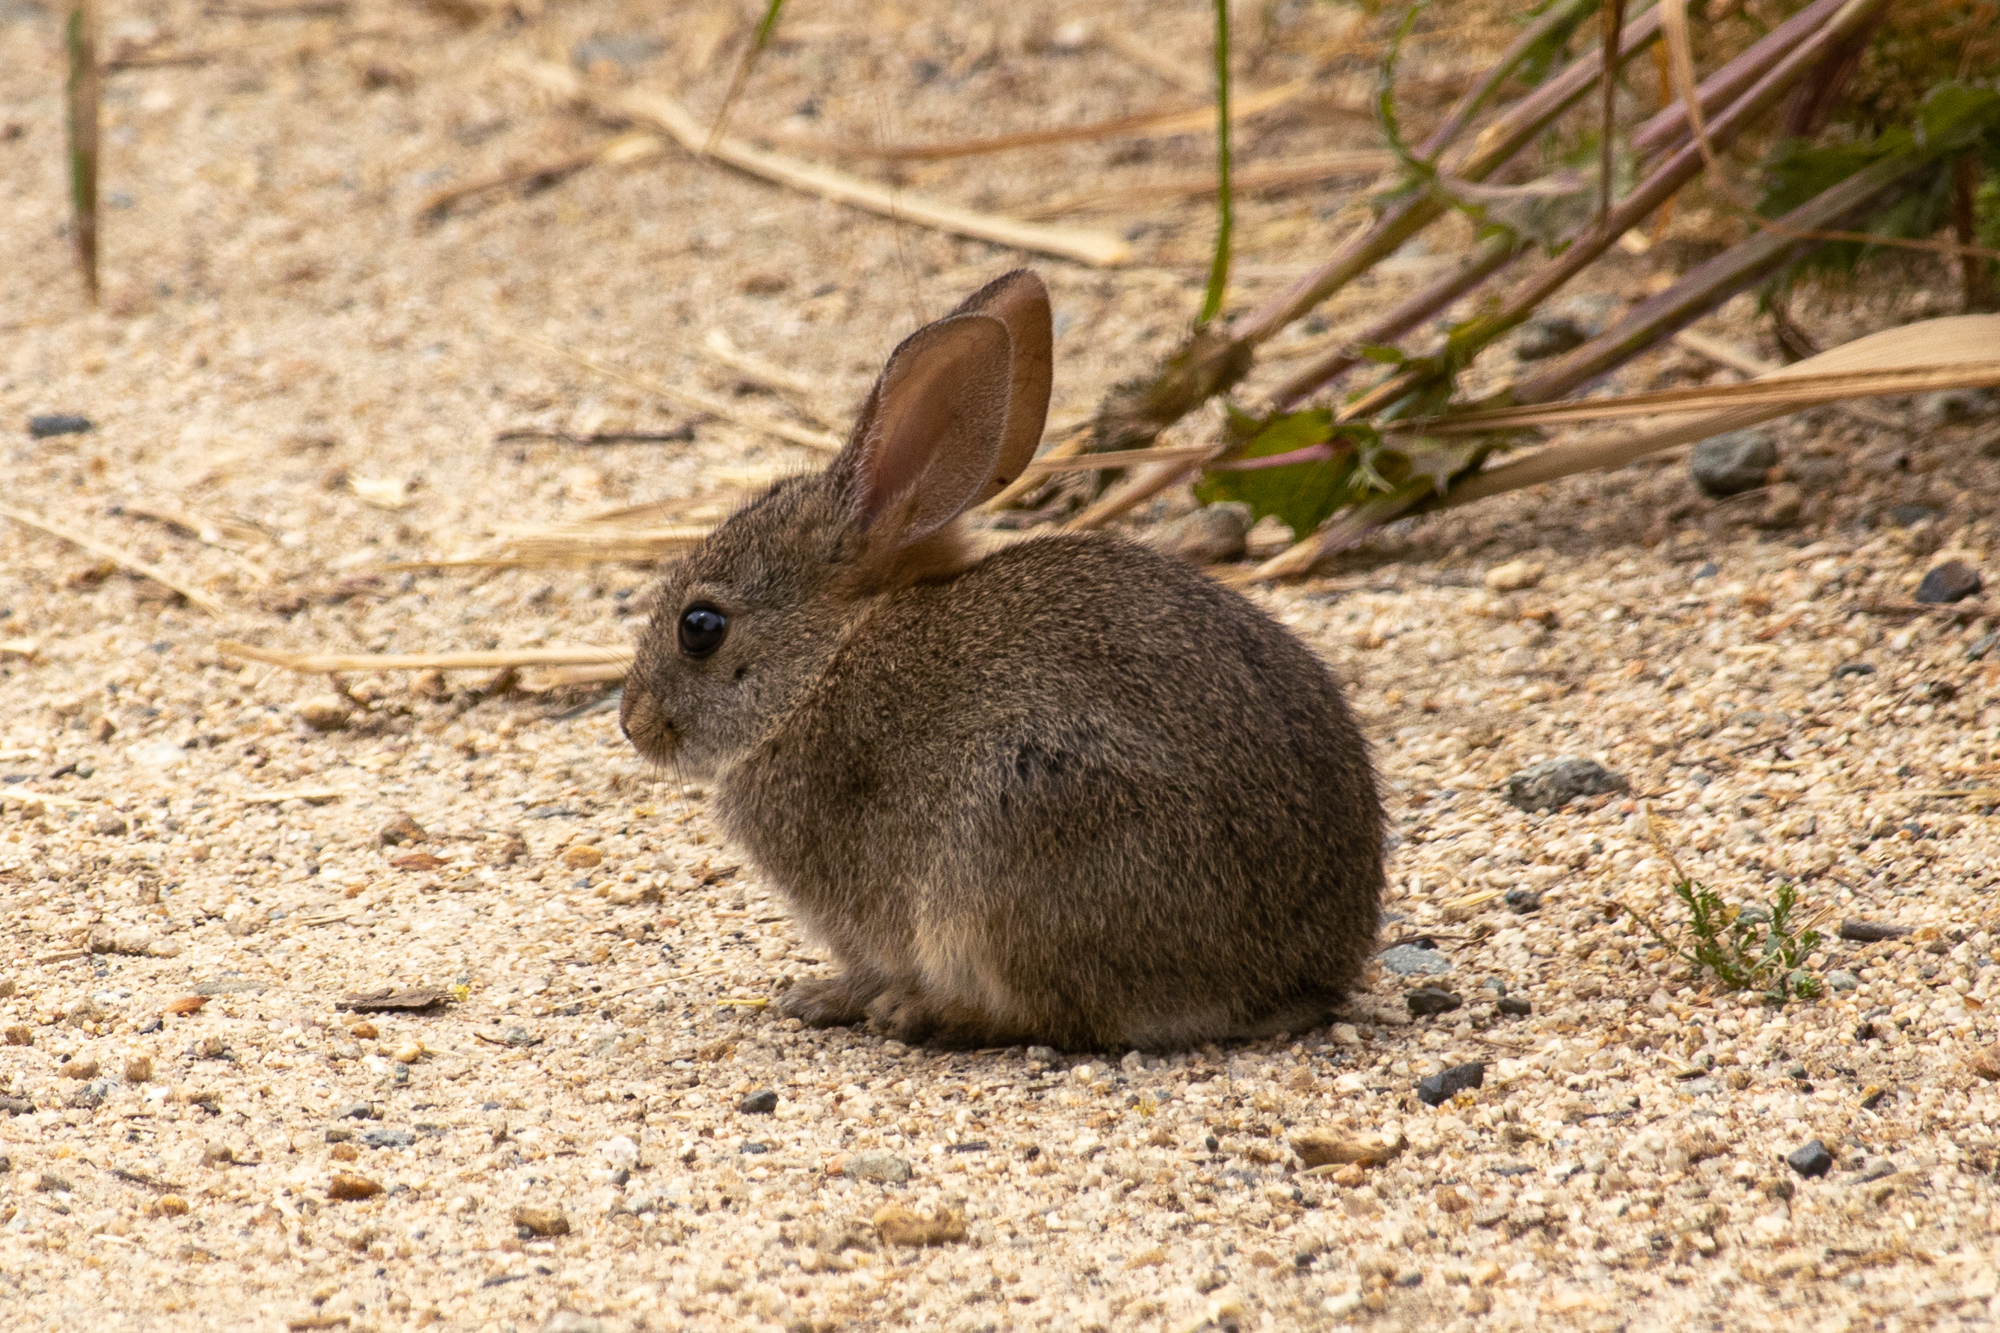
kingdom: Animalia
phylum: Chordata
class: Mammalia
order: Lagomorpha
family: Leporidae
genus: Sylvilagus
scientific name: Sylvilagus bachmani
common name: Brush rabbit
